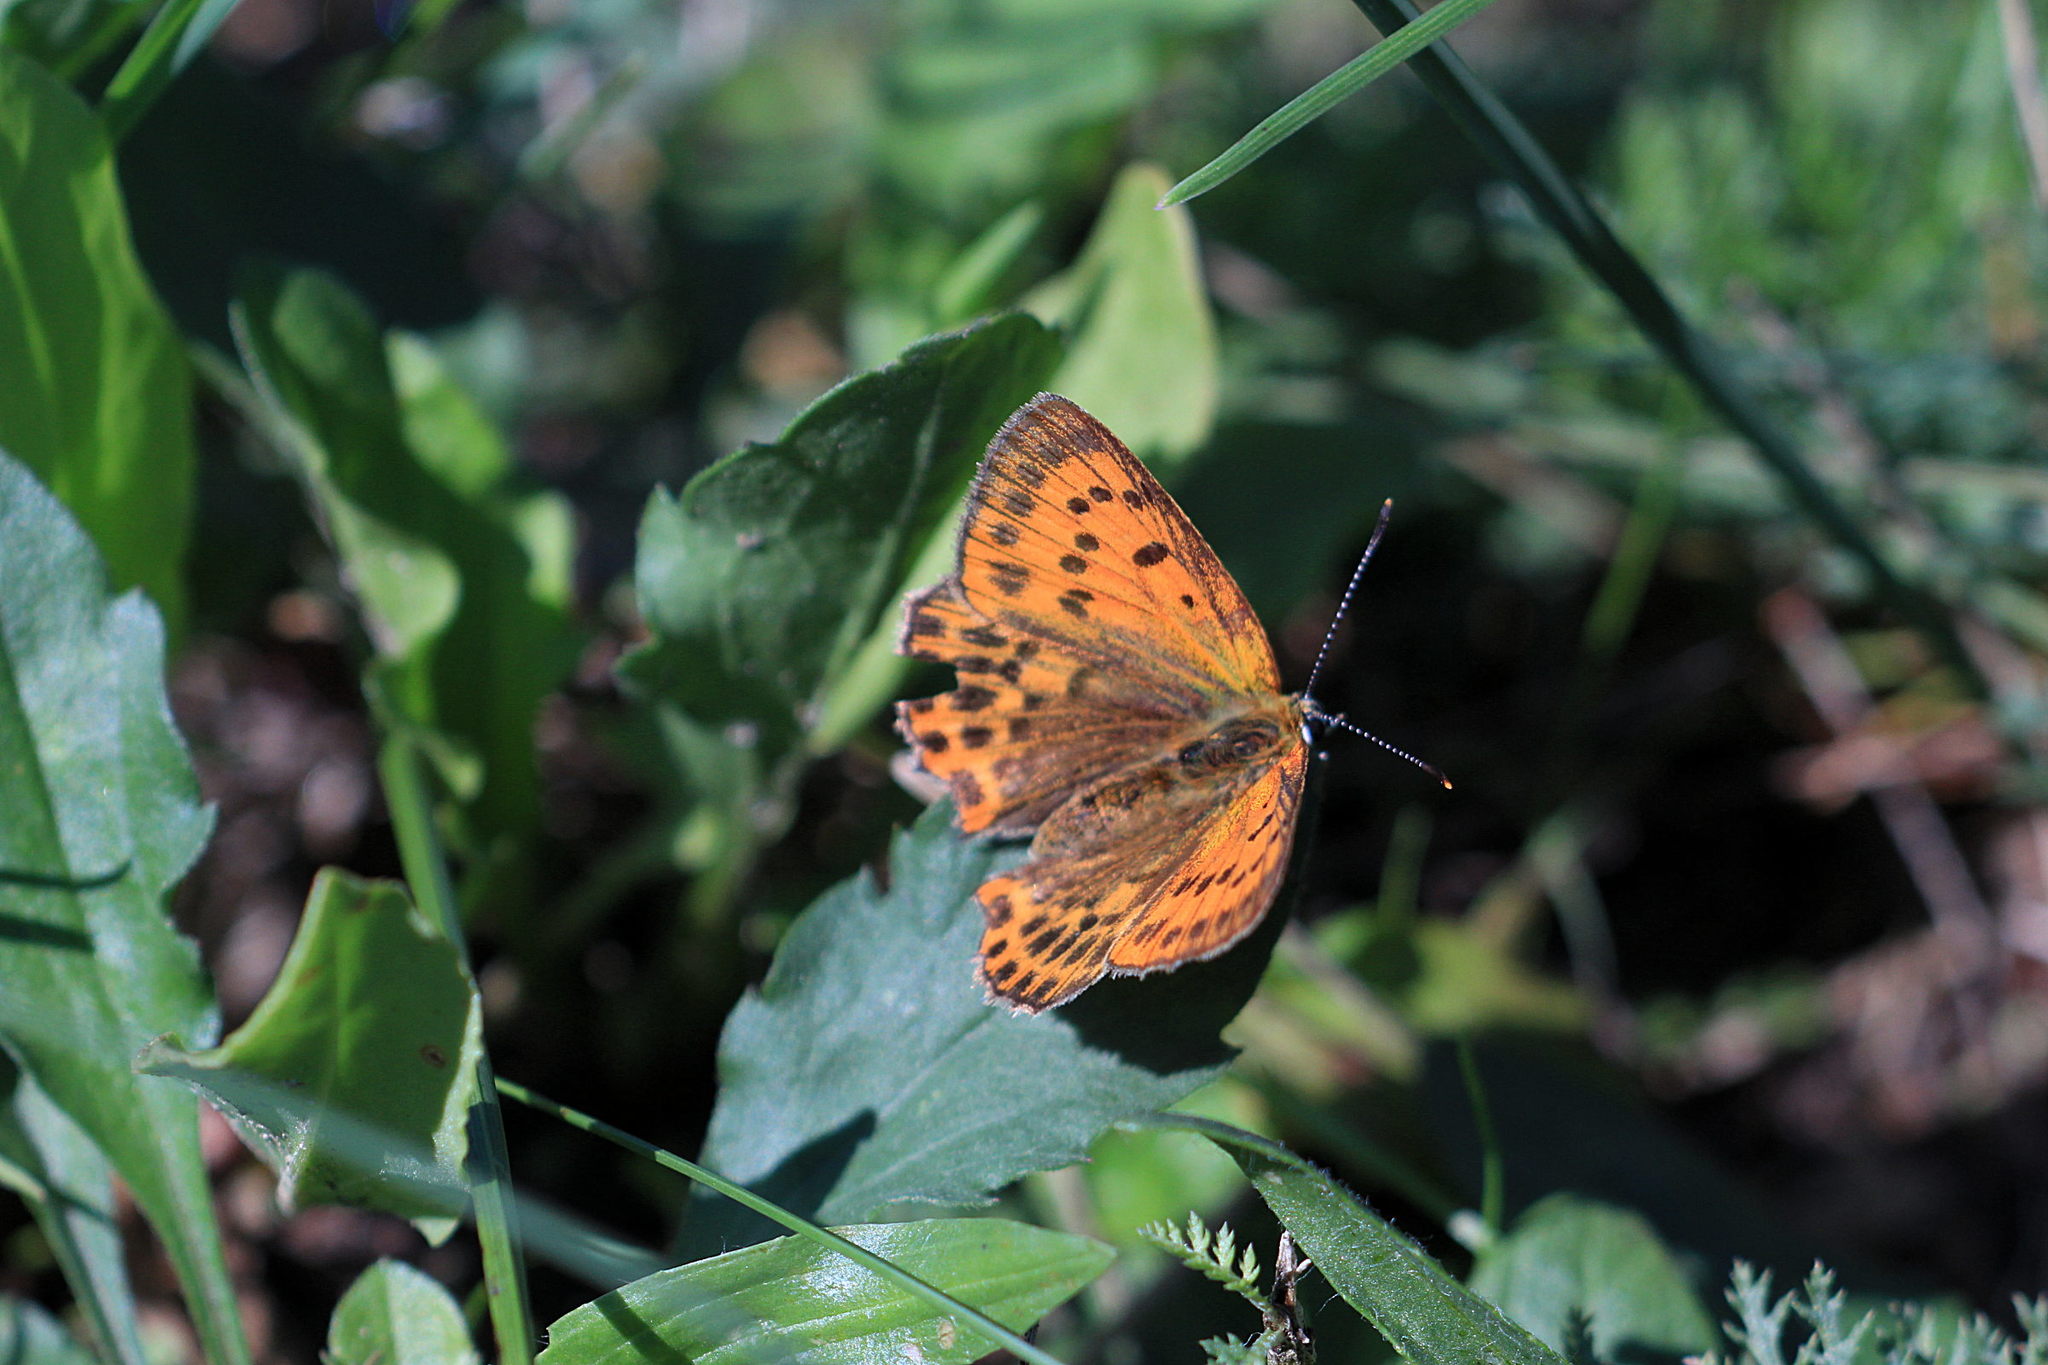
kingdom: Animalia
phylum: Arthropoda
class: Insecta
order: Lepidoptera
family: Lycaenidae
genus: Lycaena
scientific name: Lycaena virgaureae
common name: Scarce copper
